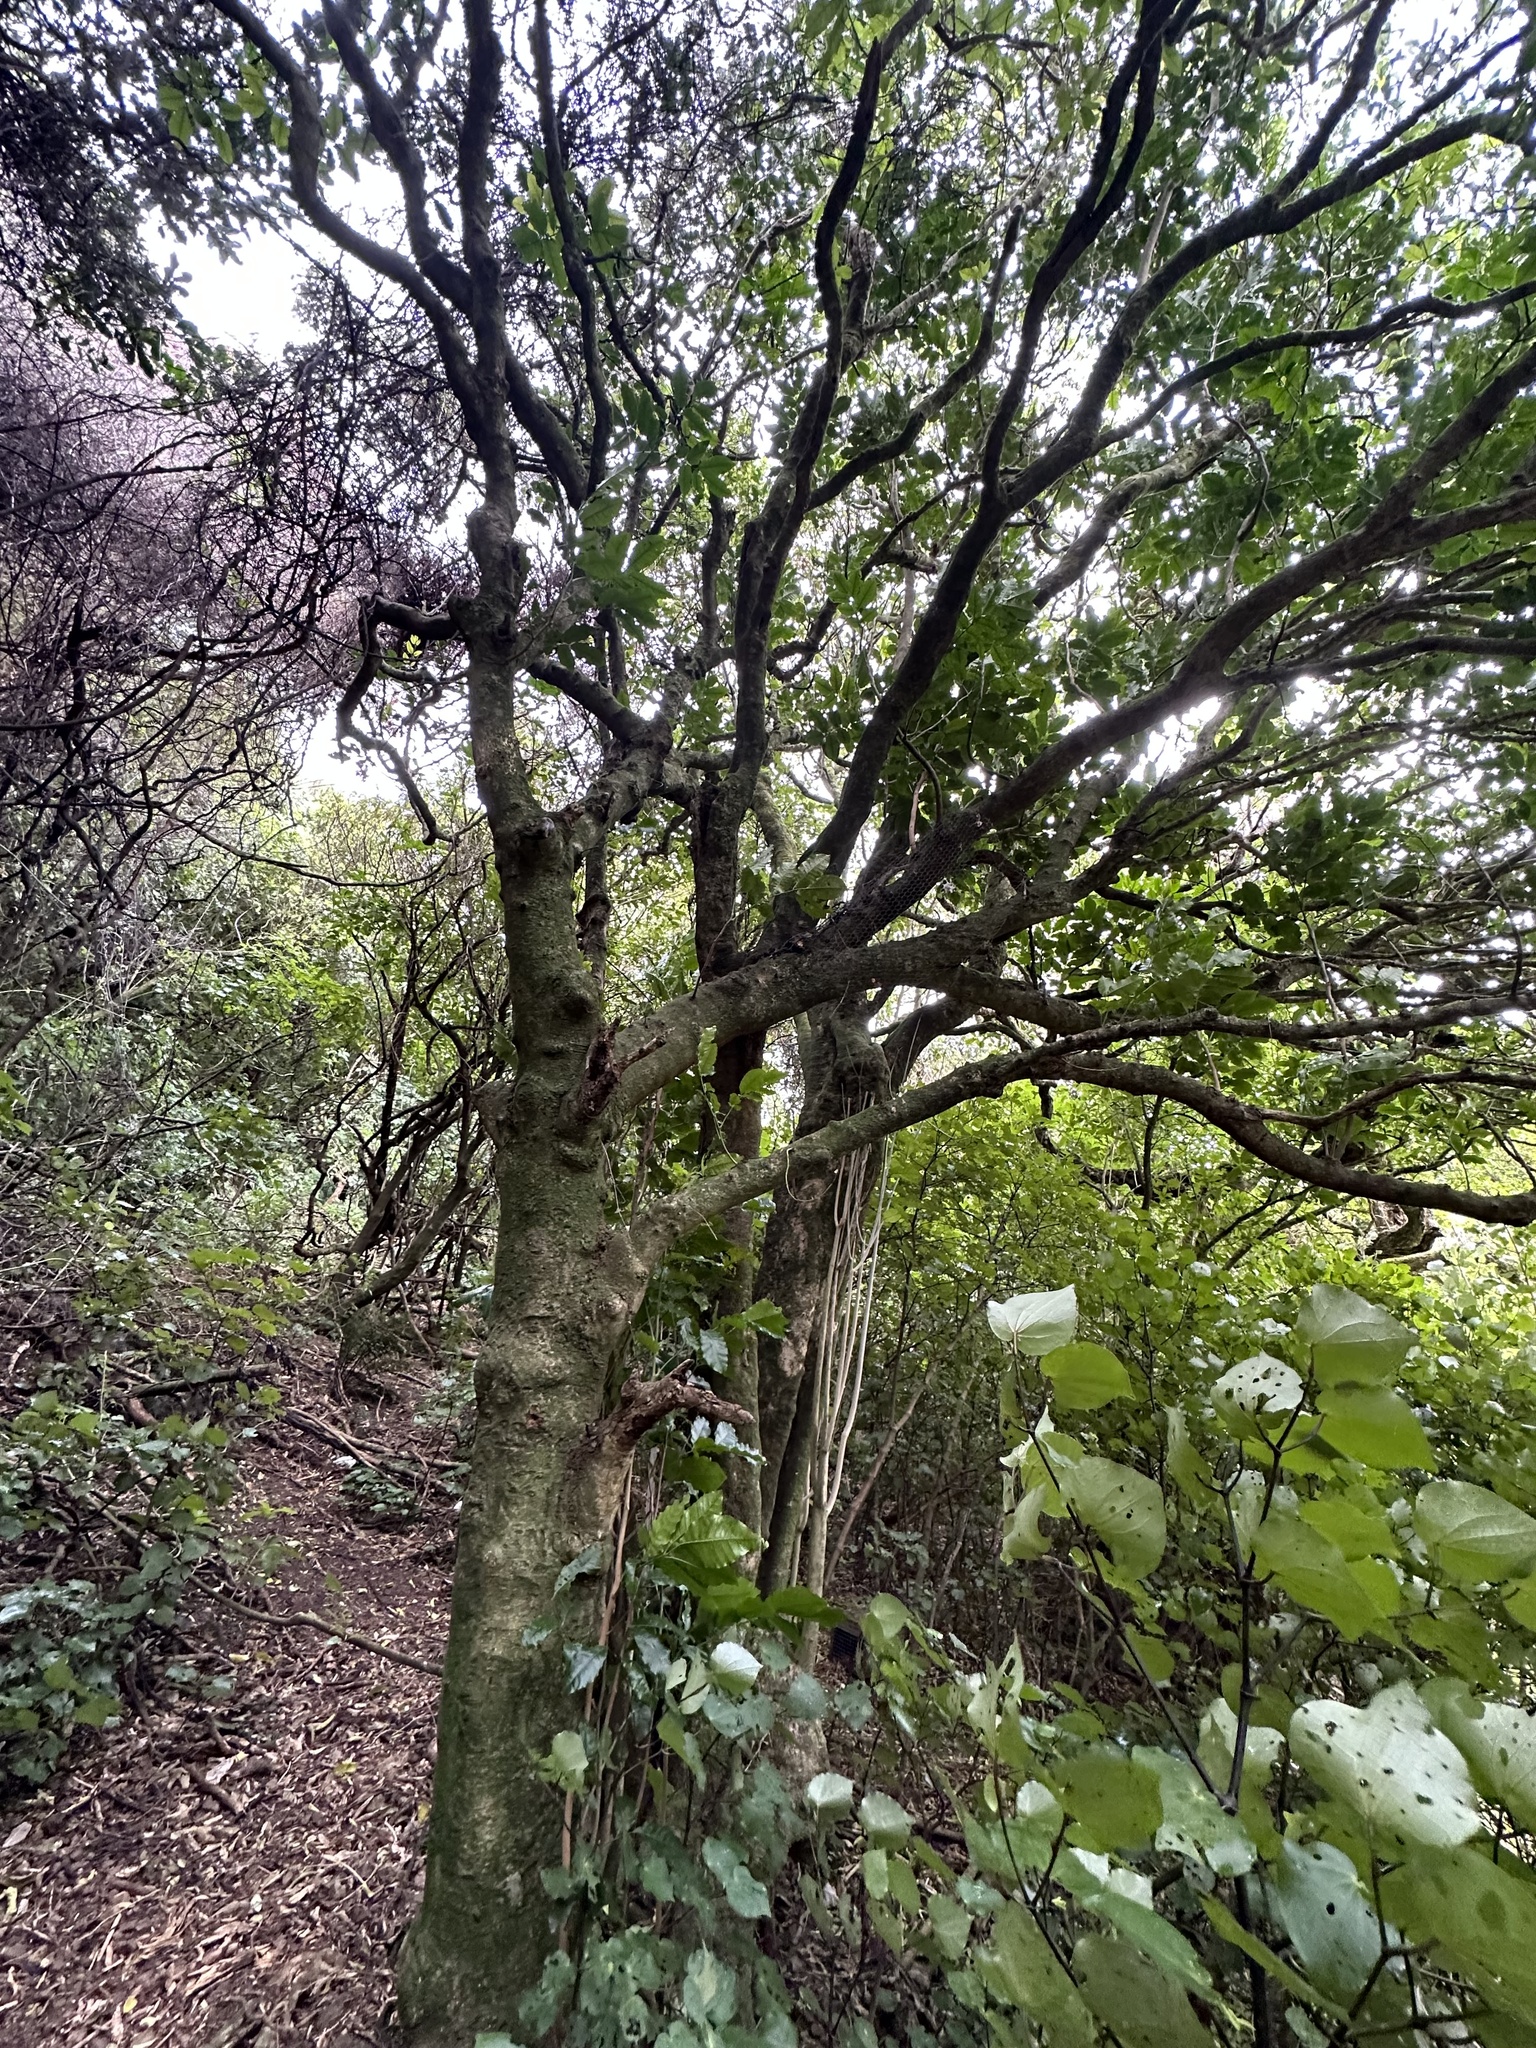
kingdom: Plantae
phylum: Tracheophyta
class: Magnoliopsida
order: Sapindales
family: Meliaceae
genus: Didymocheton
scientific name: Didymocheton spectabilis
